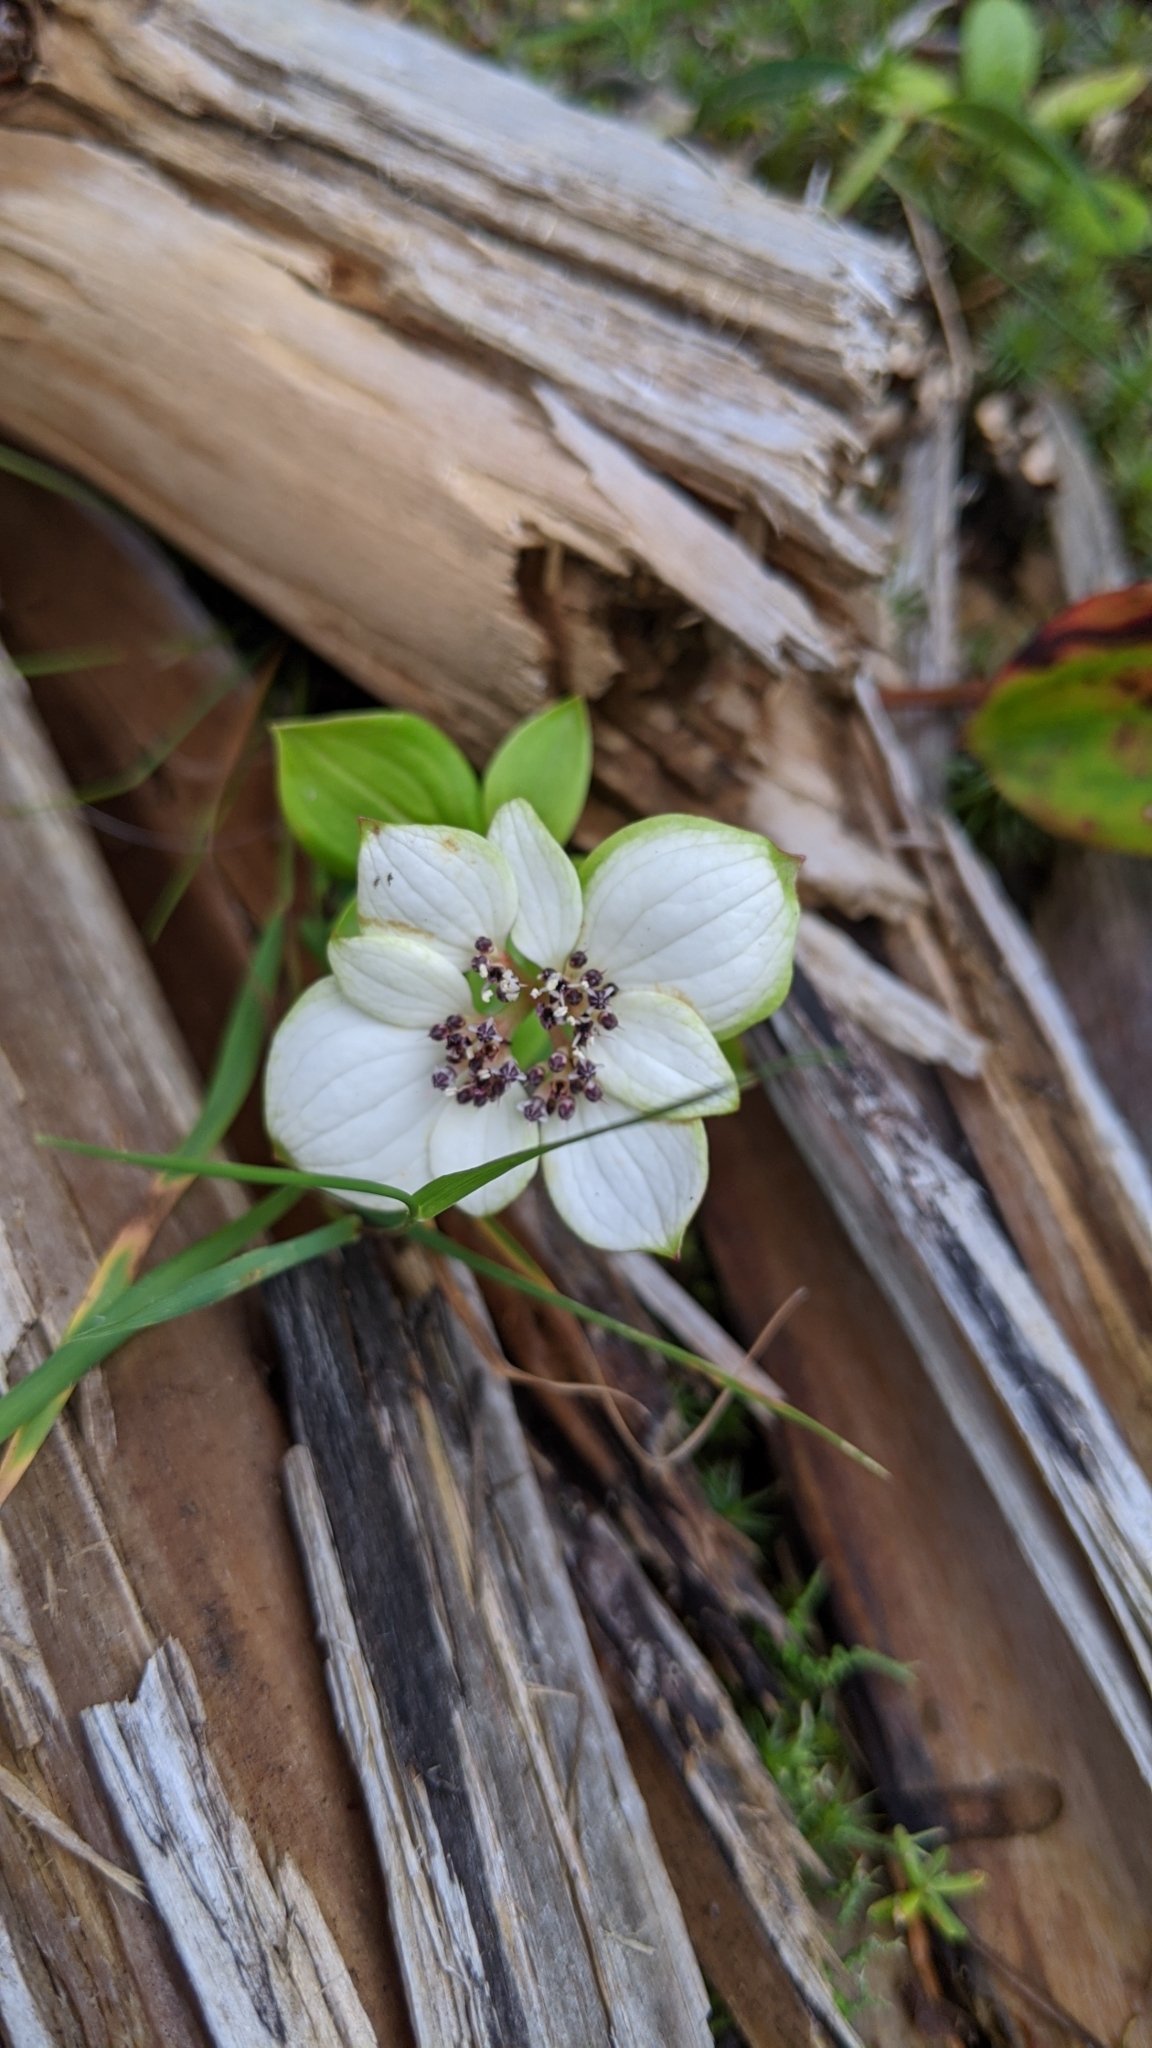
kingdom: Plantae
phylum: Tracheophyta
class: Magnoliopsida
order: Cornales
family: Cornaceae
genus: Cornus
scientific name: Cornus unalaschkensis
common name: Alaska bunchberry
